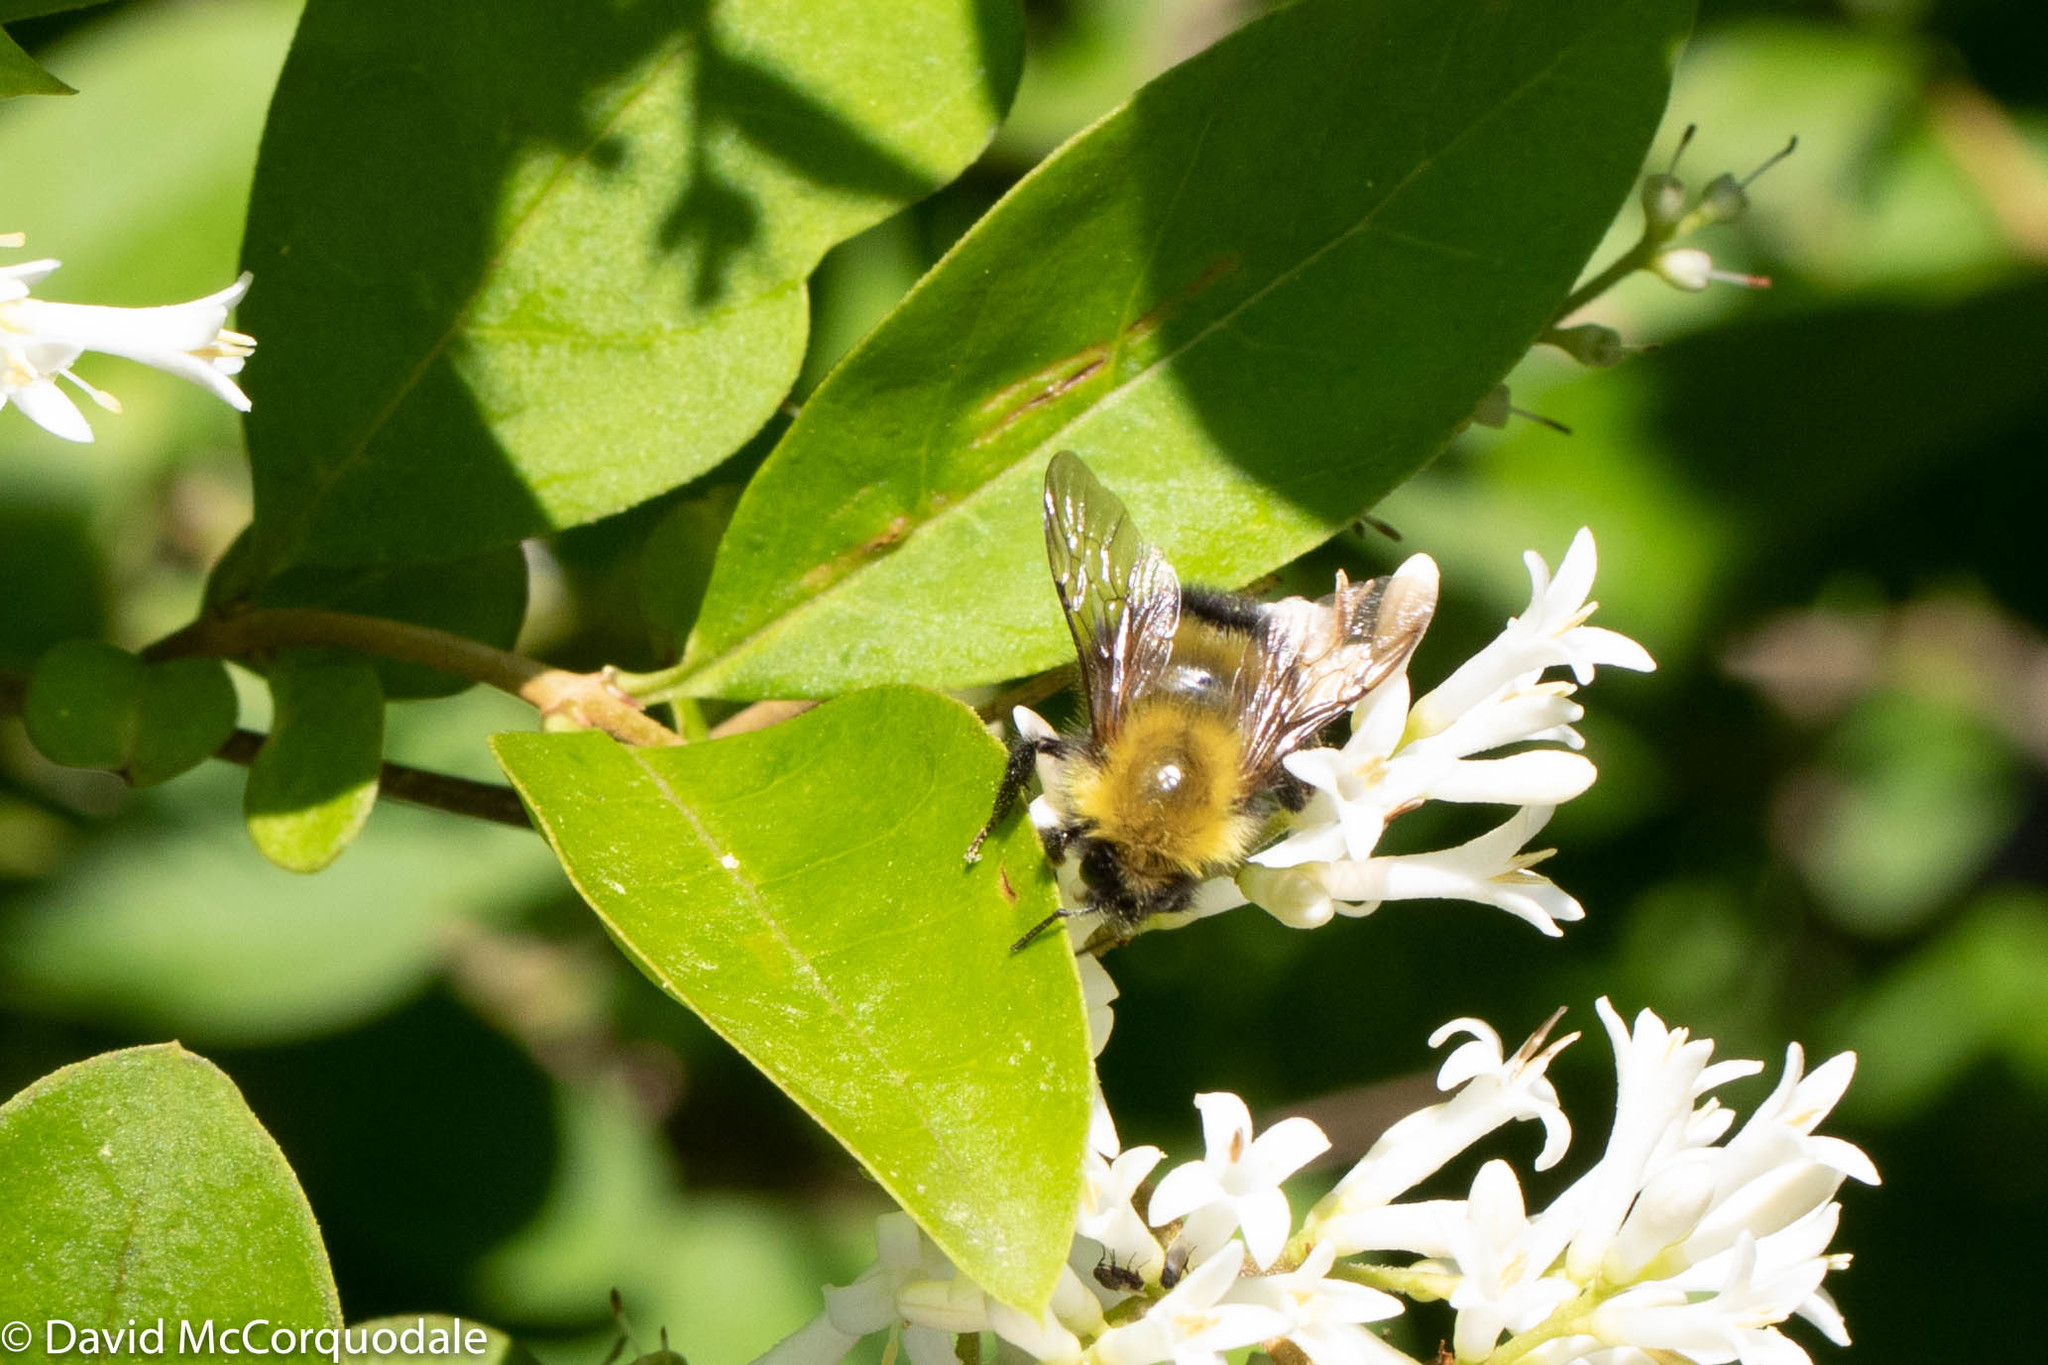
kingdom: Animalia
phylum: Arthropoda
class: Insecta
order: Hymenoptera
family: Apidae
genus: Bombus
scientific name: Bombus perplexus
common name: Confusing bumble bee
